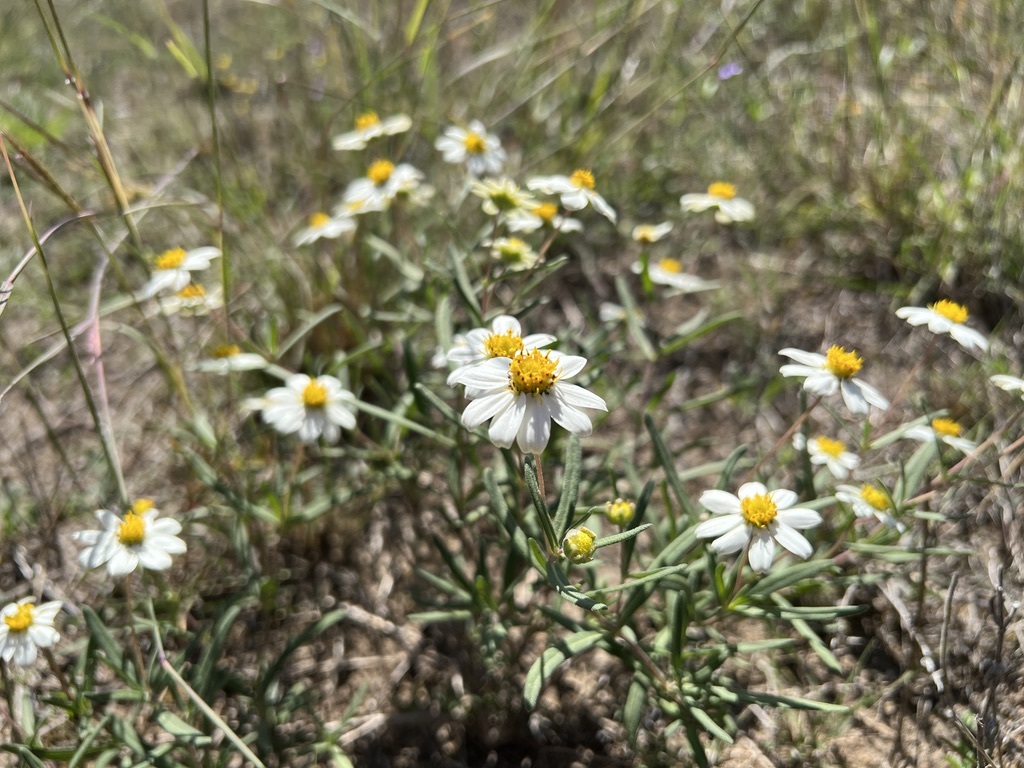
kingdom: Plantae
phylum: Tracheophyta
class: Magnoliopsida
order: Asterales
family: Asteraceae
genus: Melampodium
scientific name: Melampodium leucanthum
